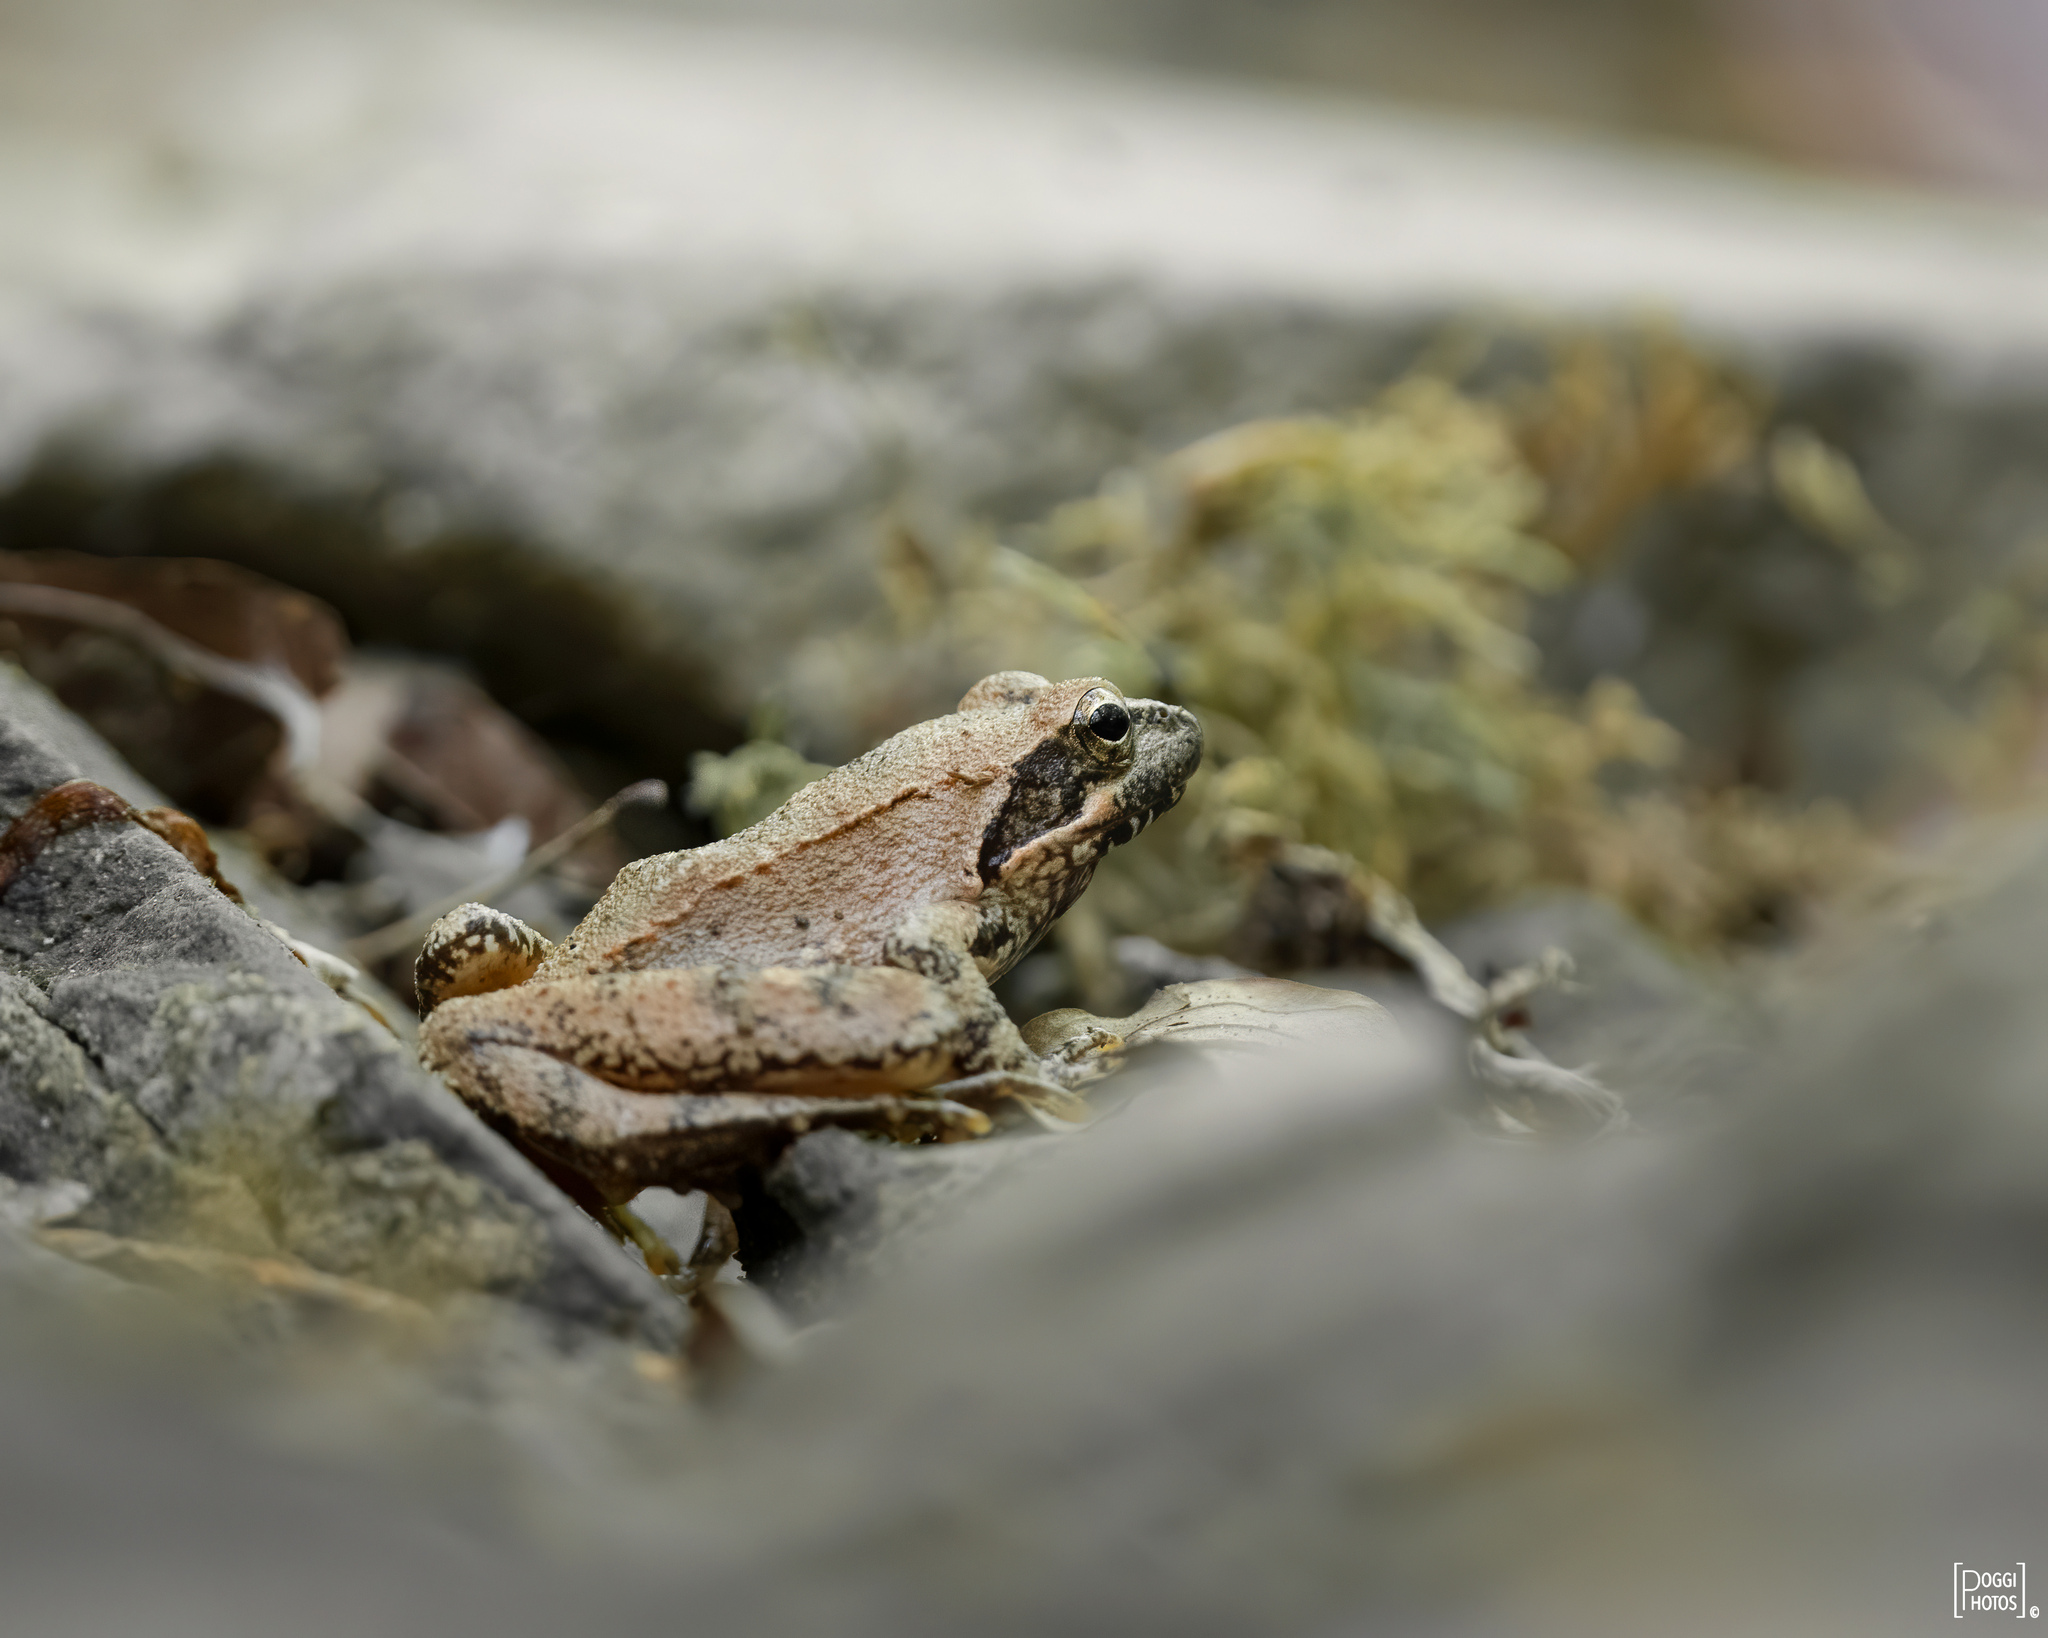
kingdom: Animalia
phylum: Chordata
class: Amphibia
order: Anura
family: Ranidae
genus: Rana
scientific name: Rana italica
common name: Italian stream frog
